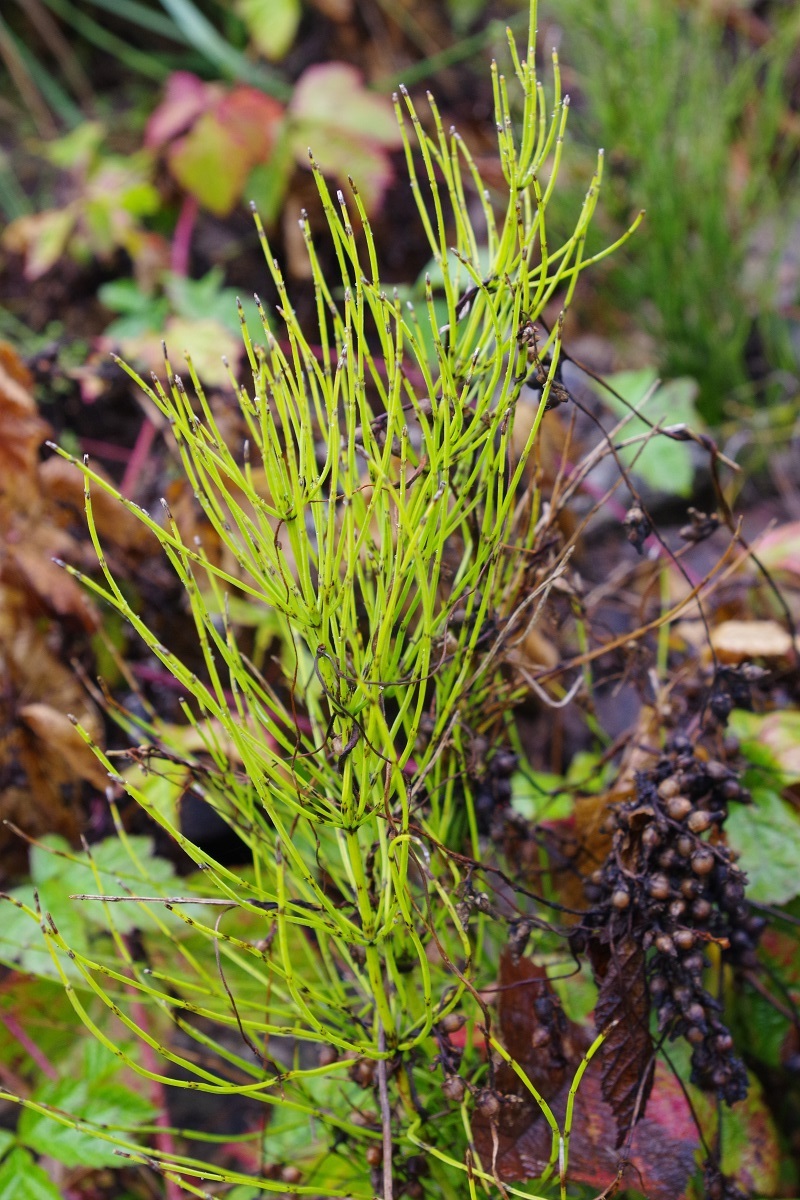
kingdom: Plantae
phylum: Tracheophyta
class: Polypodiopsida
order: Equisetales
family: Equisetaceae
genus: Equisetum
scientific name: Equisetum arvense
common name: Field horsetail
